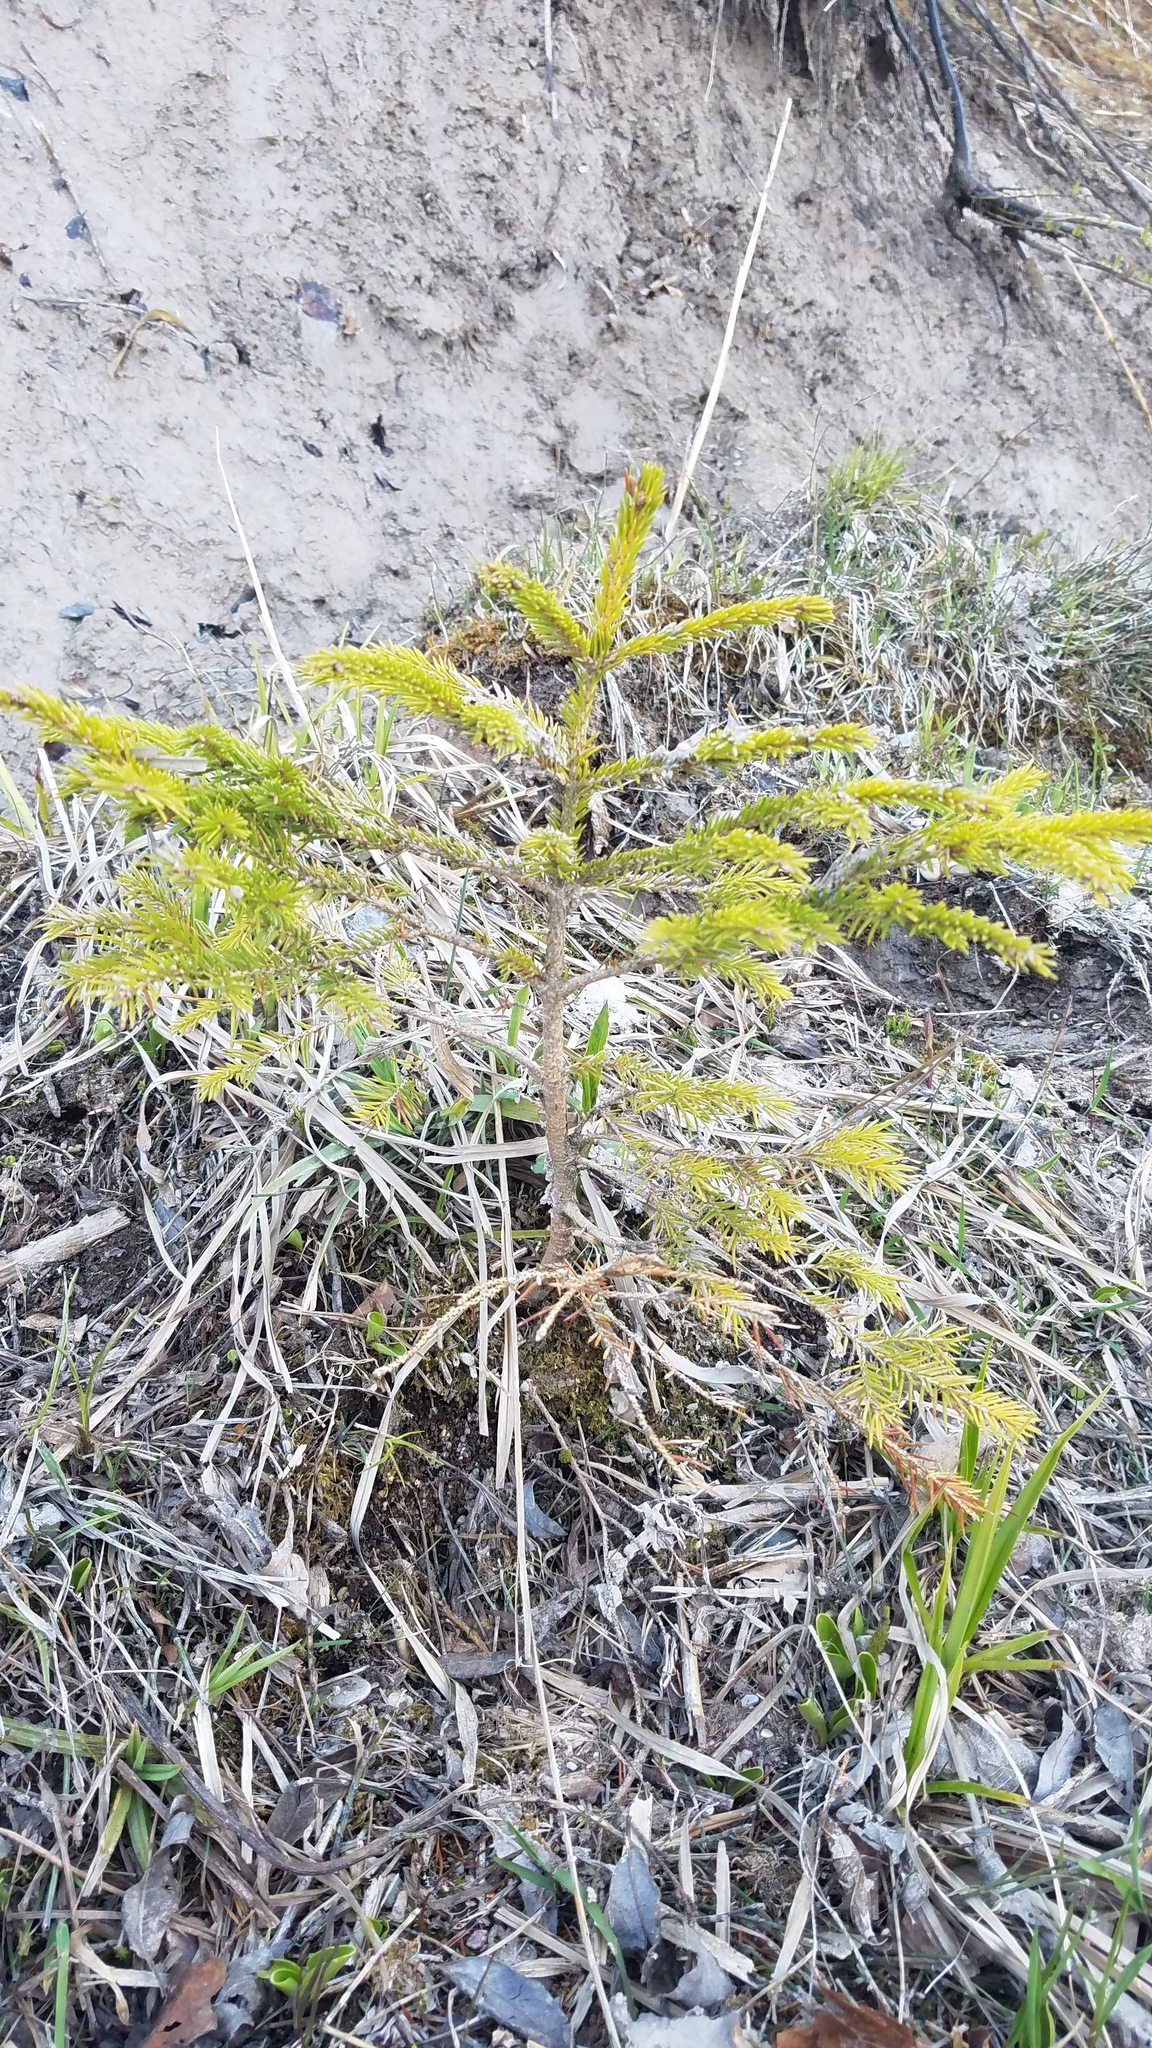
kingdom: Plantae
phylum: Tracheophyta
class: Pinopsida
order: Pinales
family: Pinaceae
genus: Picea
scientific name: Picea mariana
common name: Black spruce
